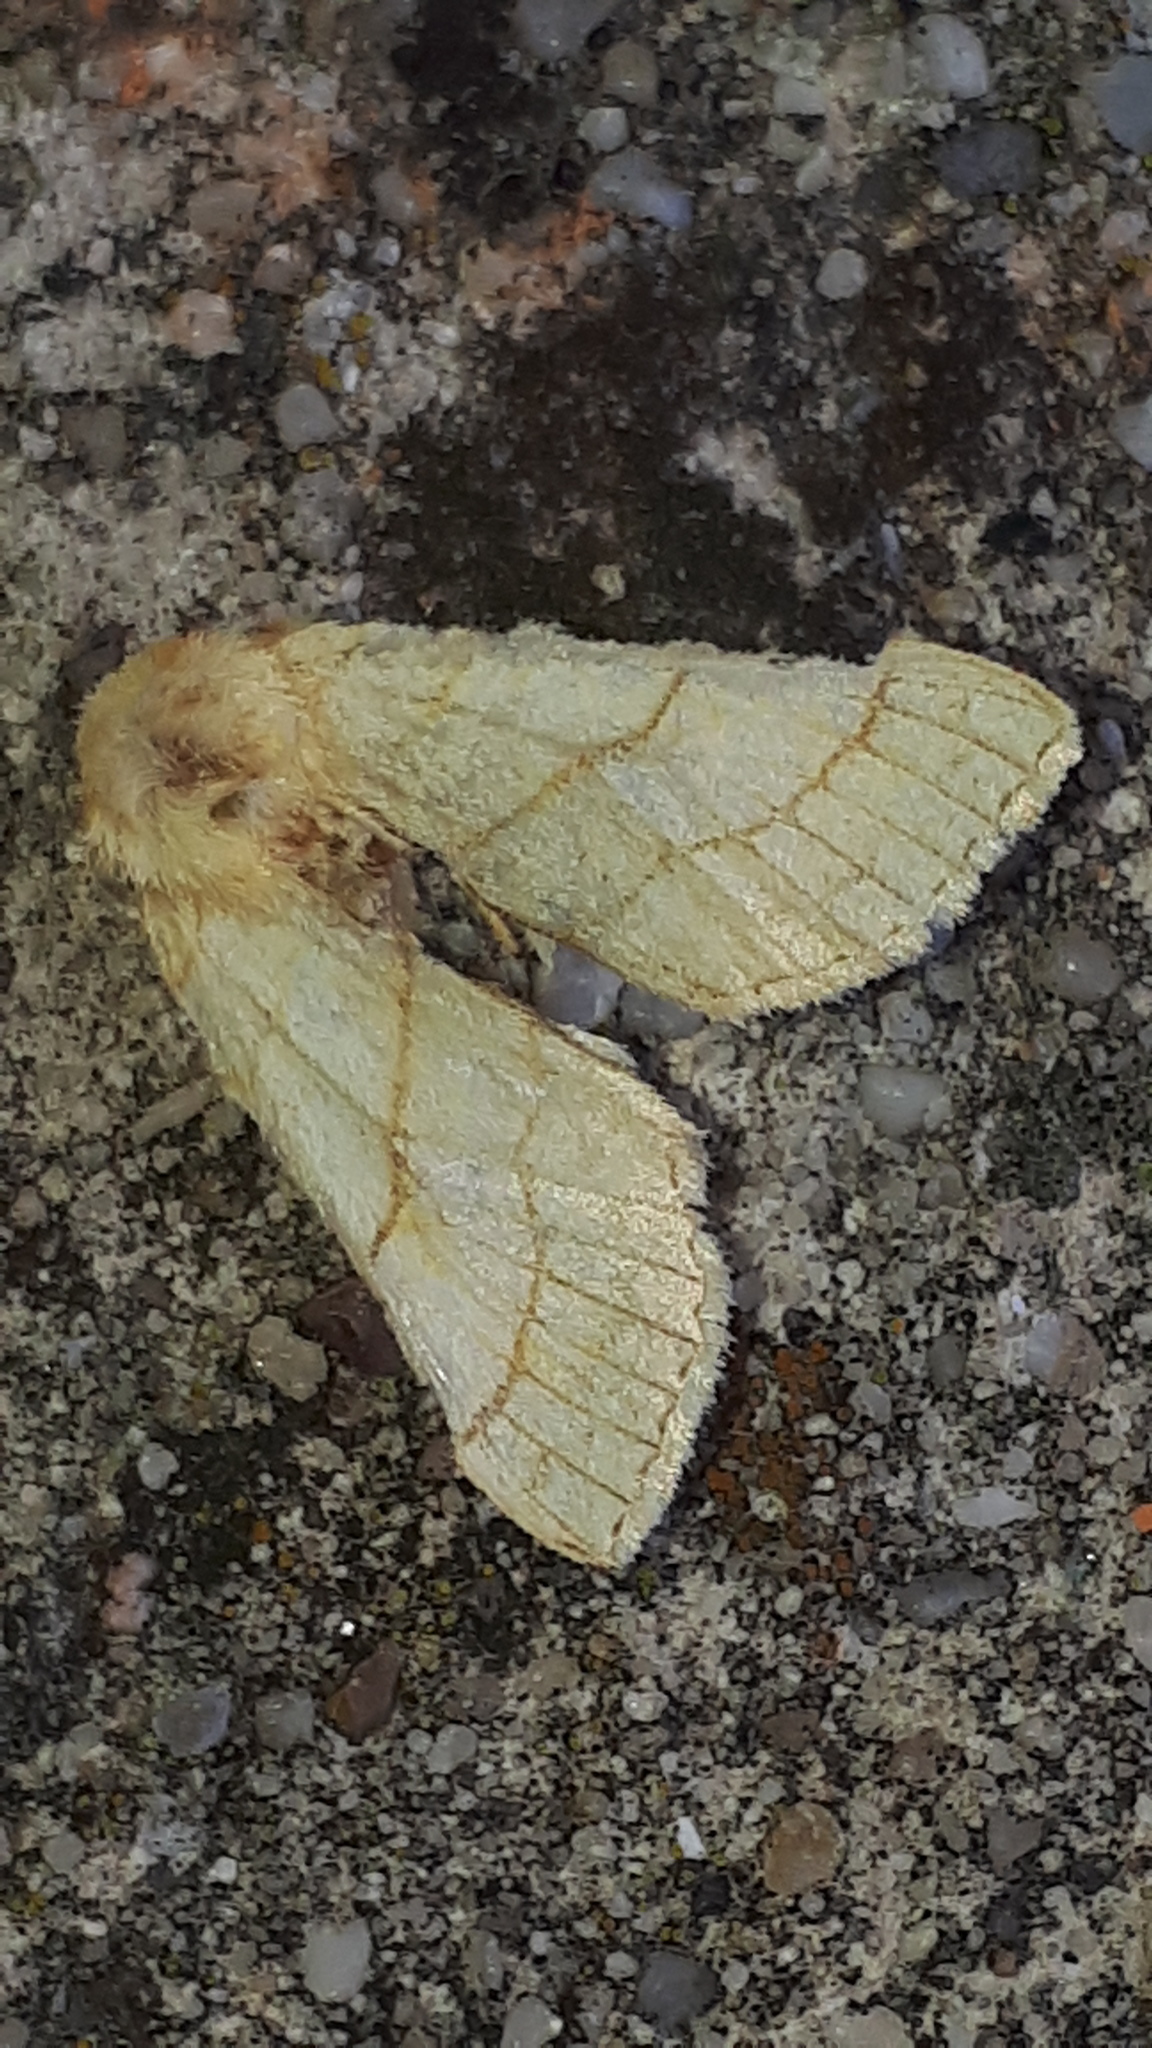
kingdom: Animalia
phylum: Arthropoda
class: Insecta
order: Lepidoptera
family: Noctuidae
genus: Tiliacea
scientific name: Tiliacea citrago
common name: Orange sallow
